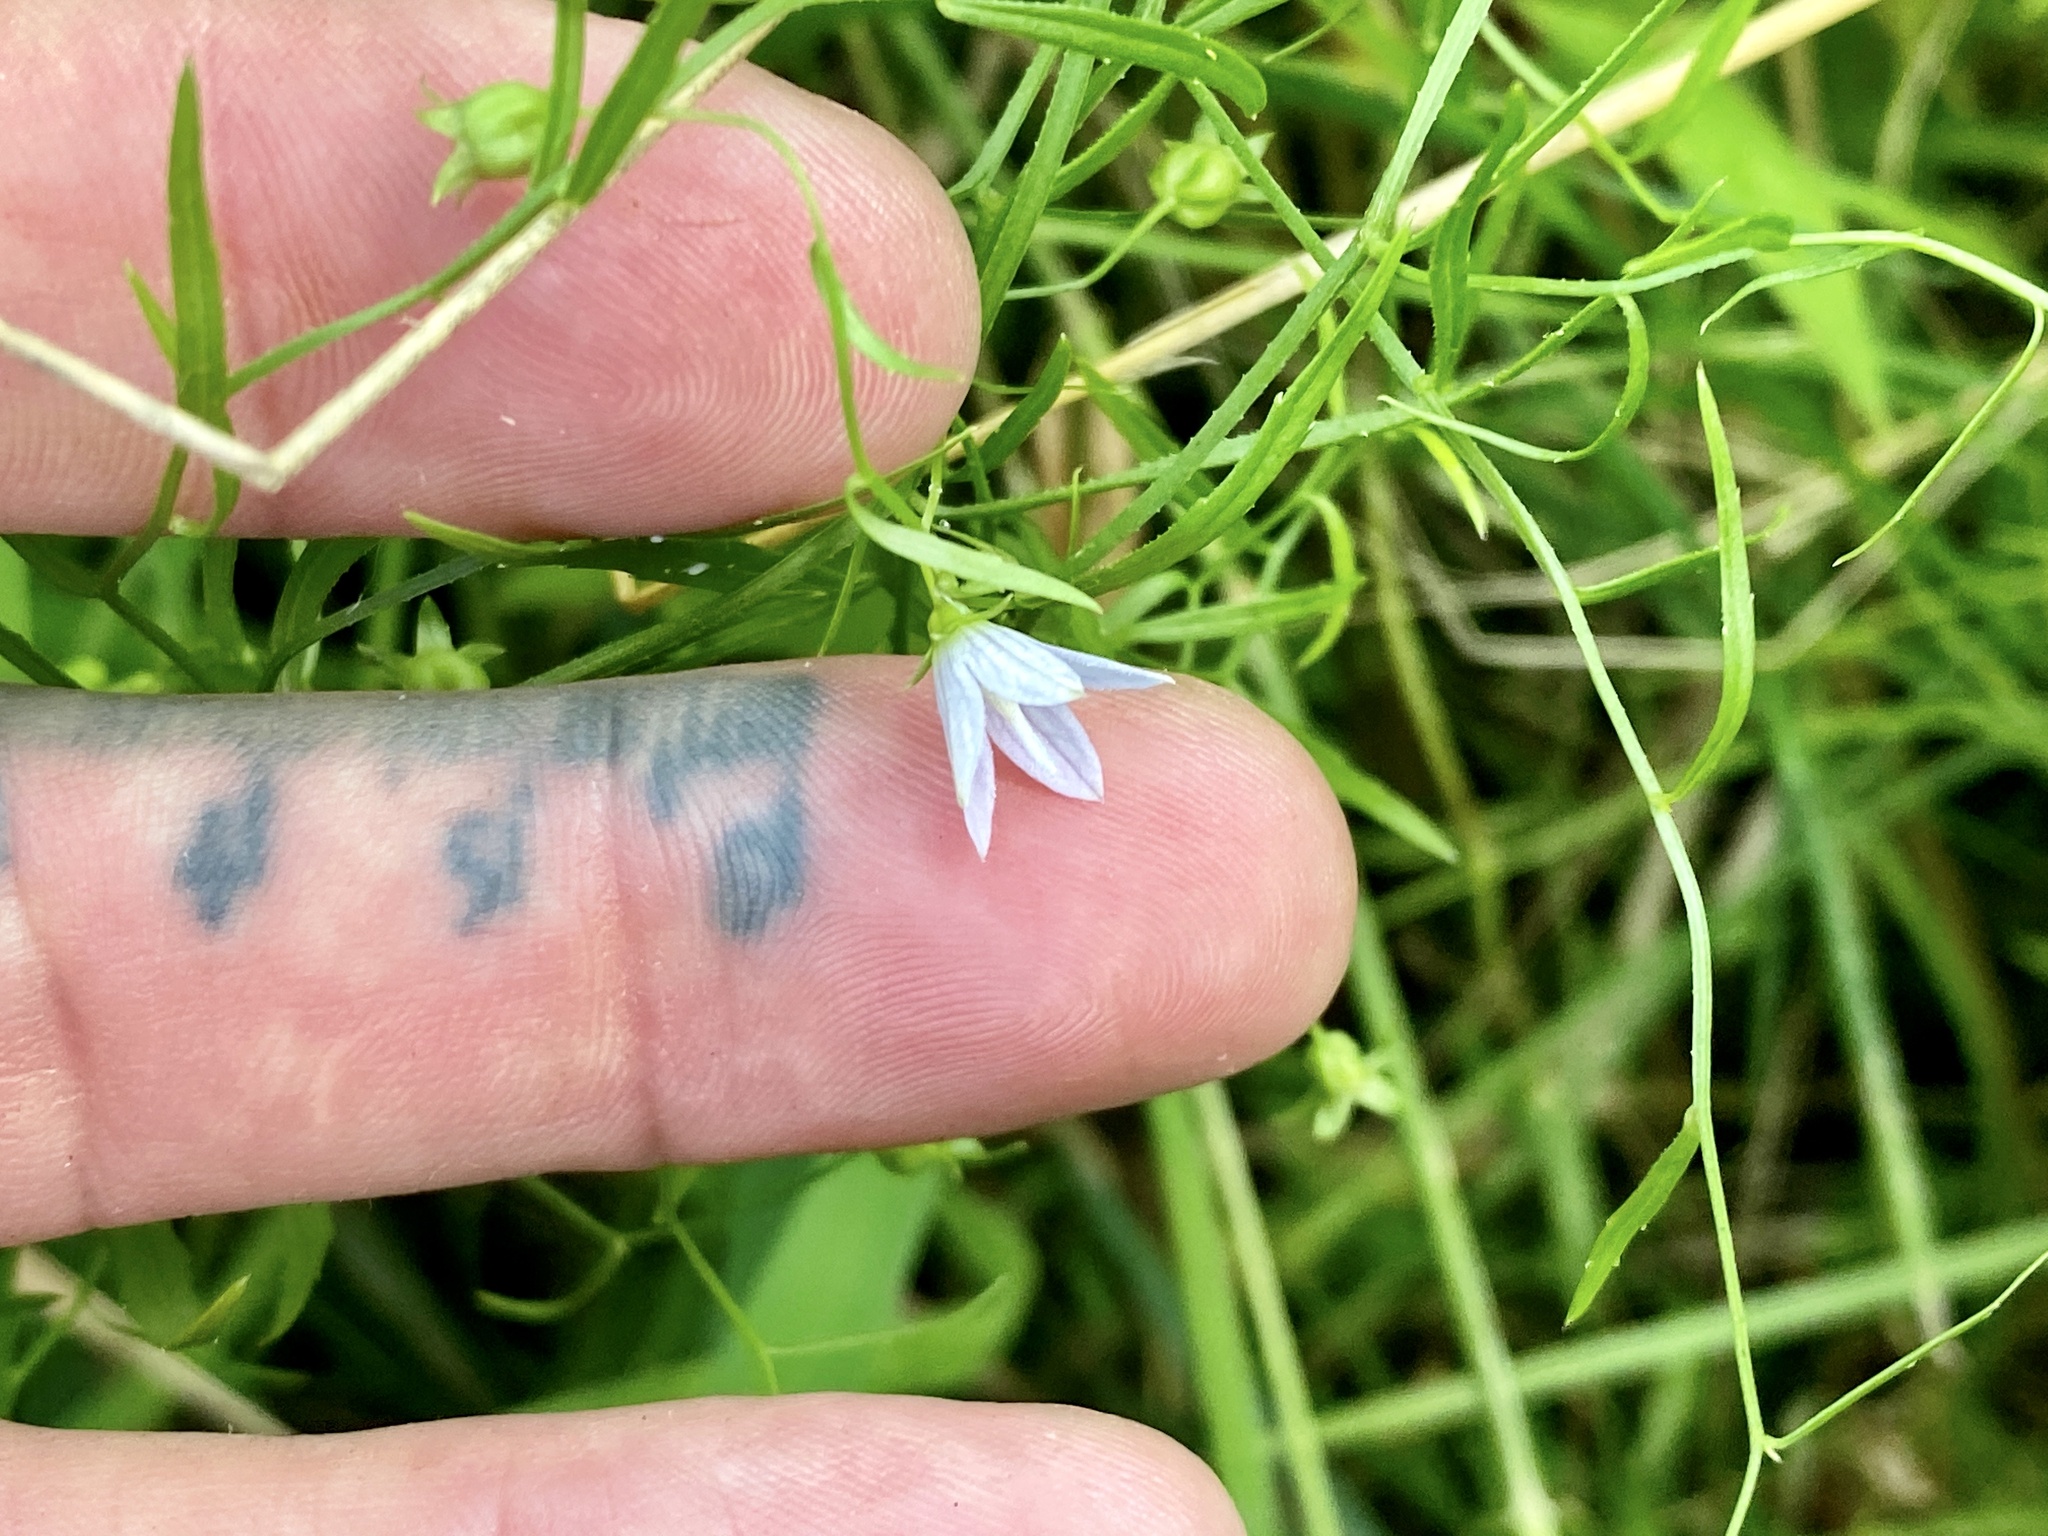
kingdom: Plantae
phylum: Tracheophyta
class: Magnoliopsida
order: Asterales
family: Campanulaceae
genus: Palustricodon
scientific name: Palustricodon aparinoides
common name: Bedstraw bellflower
